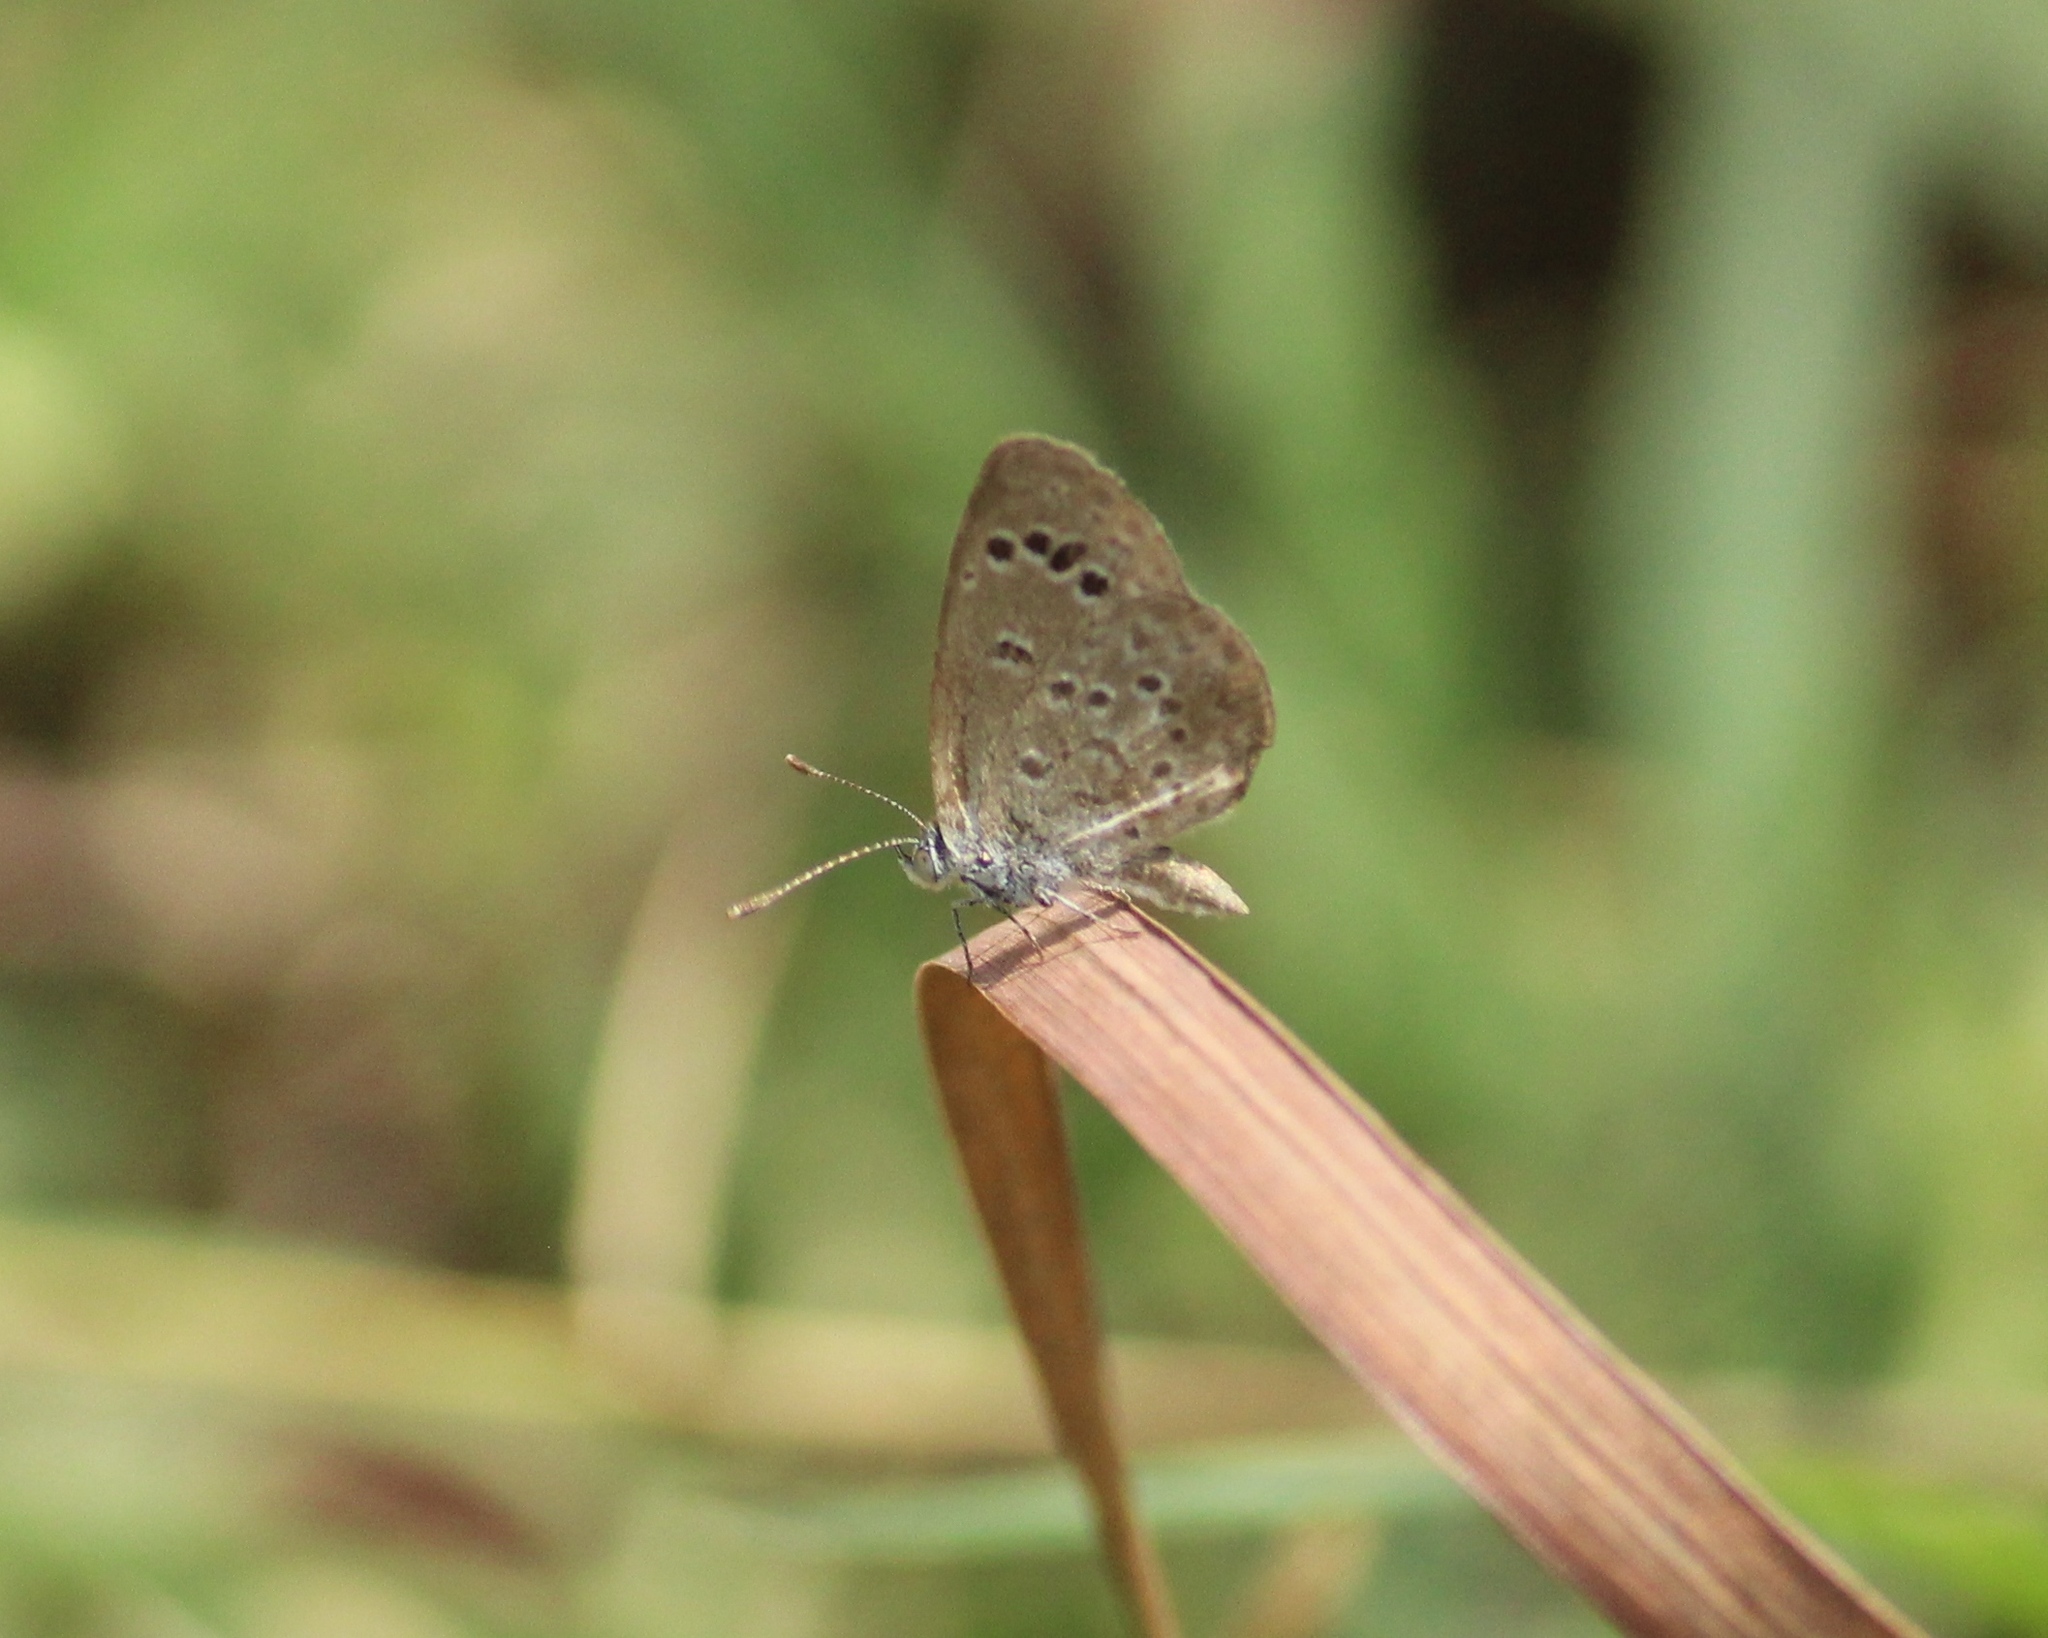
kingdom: Animalia
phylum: Arthropoda
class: Insecta
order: Lepidoptera
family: Lycaenidae
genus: Zizina
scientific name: Zizina otis
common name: Lesser grass blue
